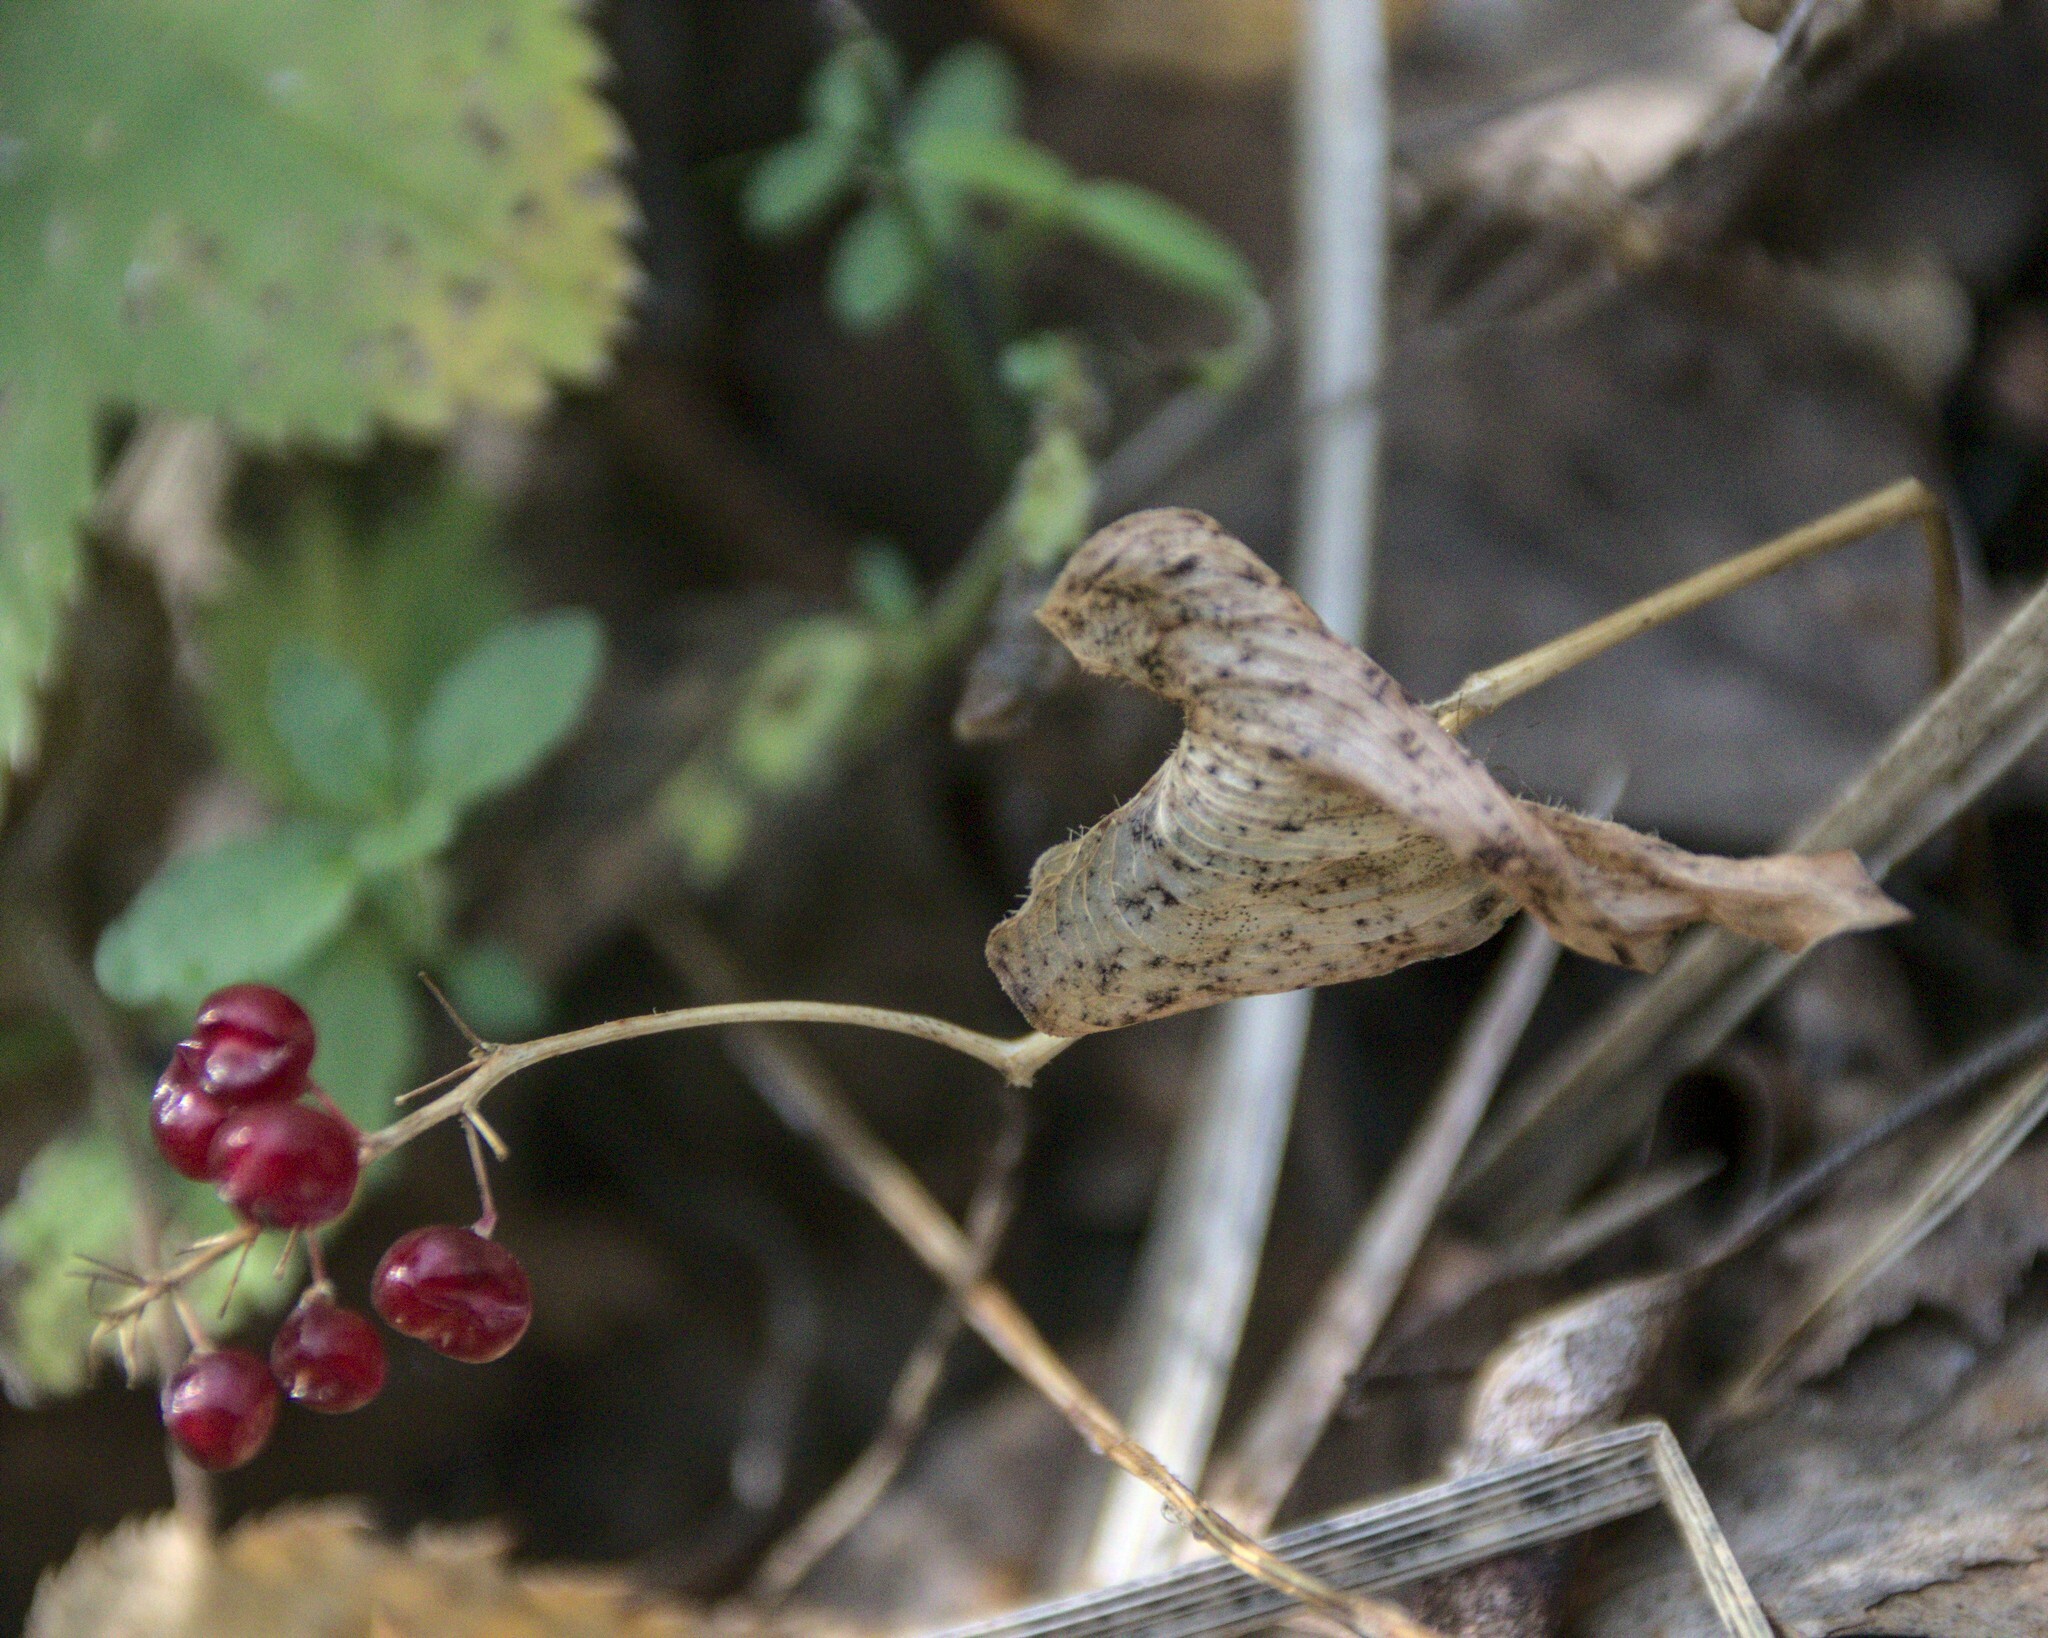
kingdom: Plantae
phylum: Tracheophyta
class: Liliopsida
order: Asparagales
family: Asparagaceae
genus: Maianthemum
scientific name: Maianthemum bifolium
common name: May lily
